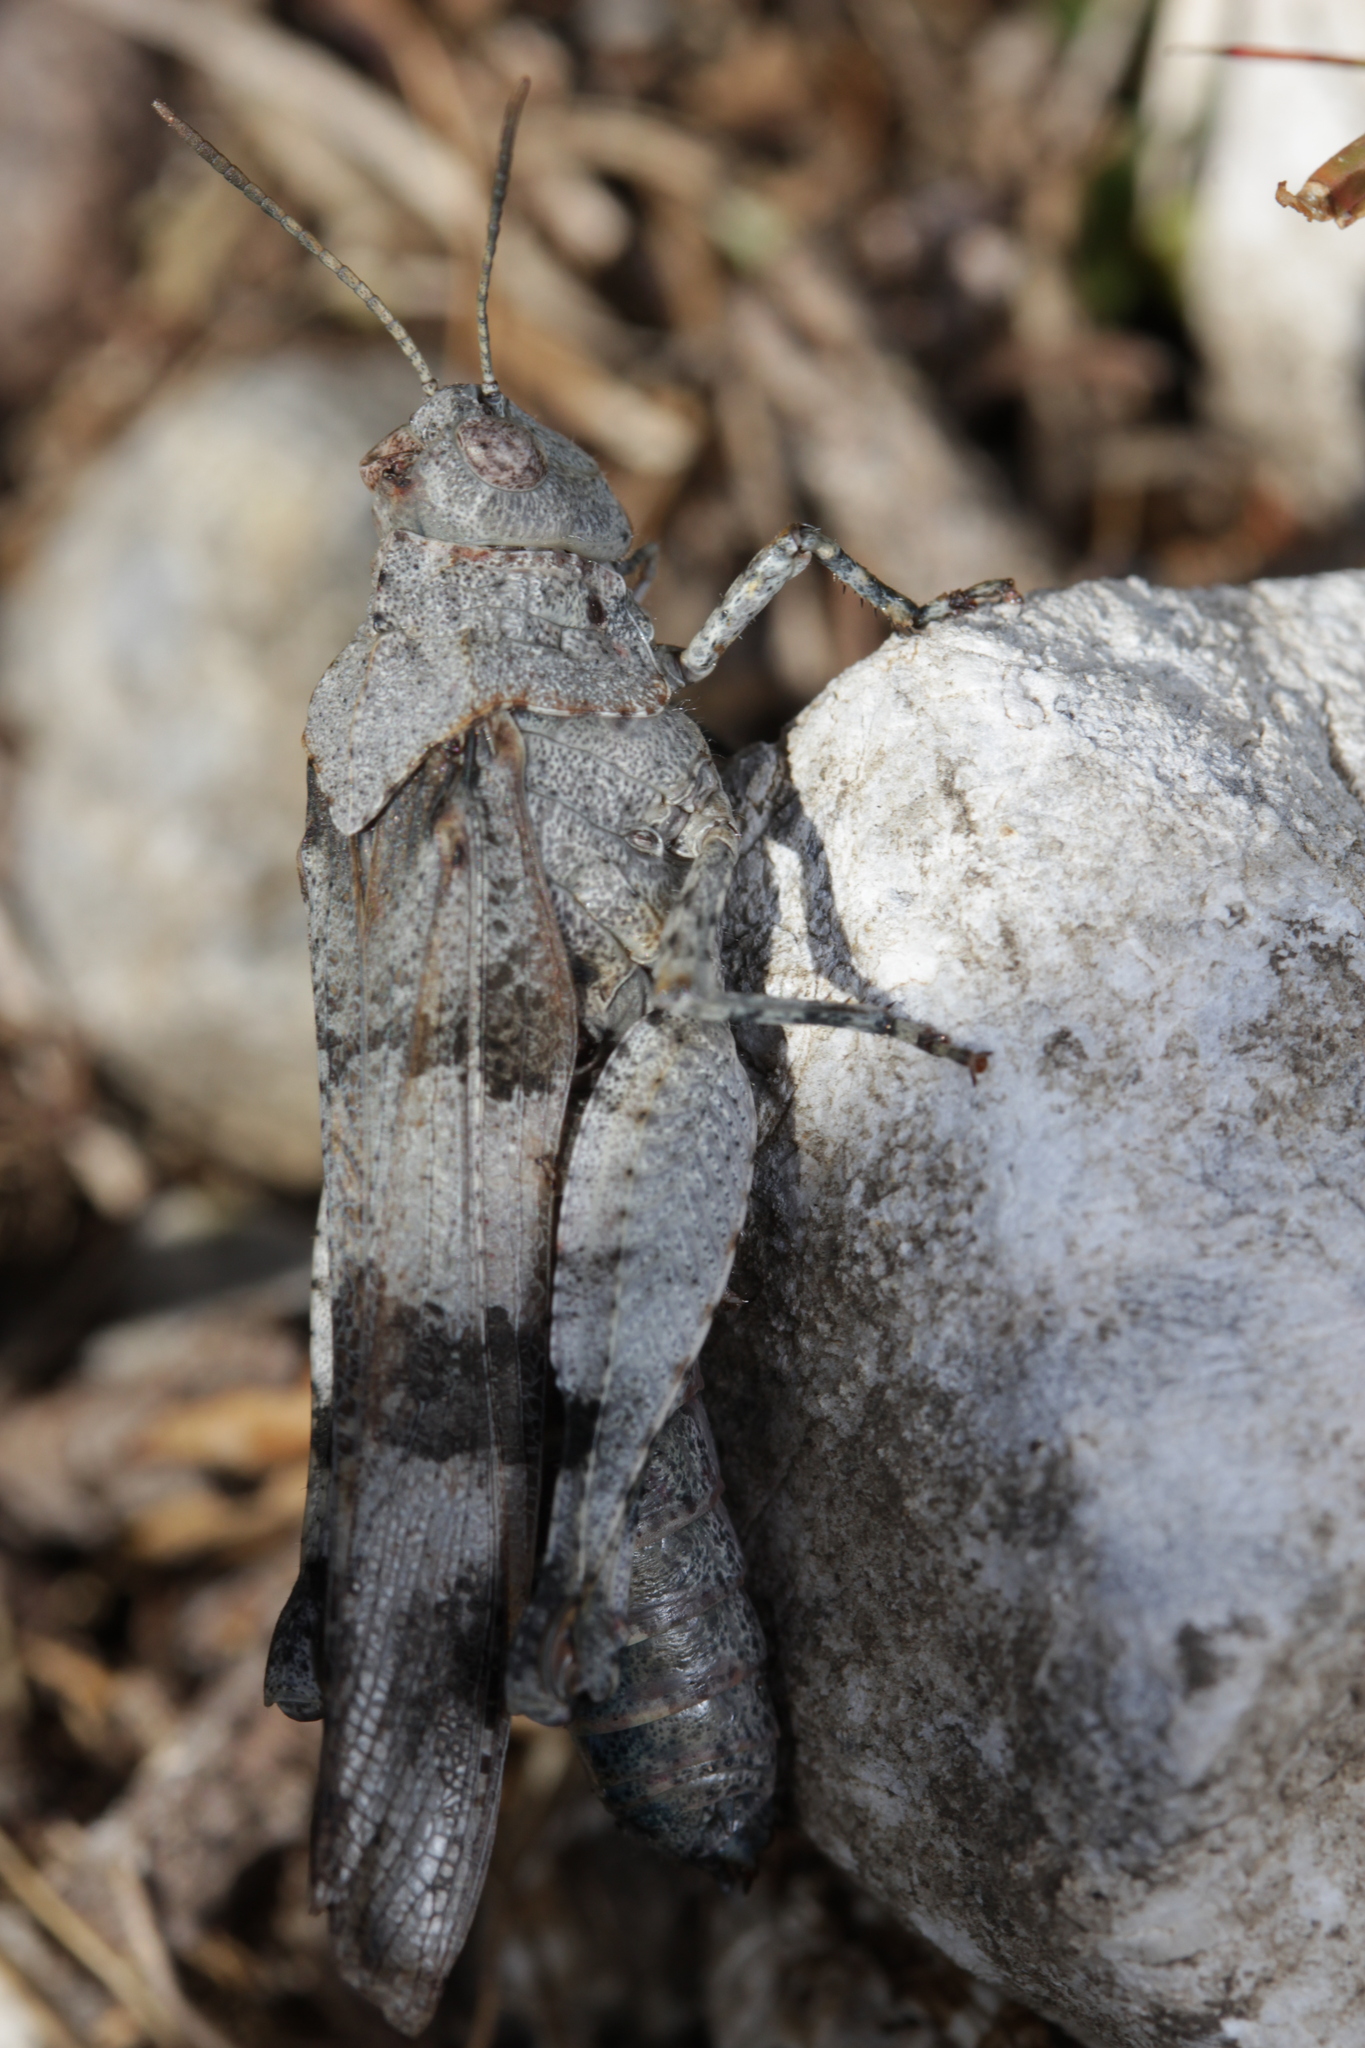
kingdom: Animalia
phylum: Arthropoda
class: Insecta
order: Orthoptera
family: Acrididae
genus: Oedipoda
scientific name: Oedipoda caerulescens
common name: Blue-winged grasshopper
